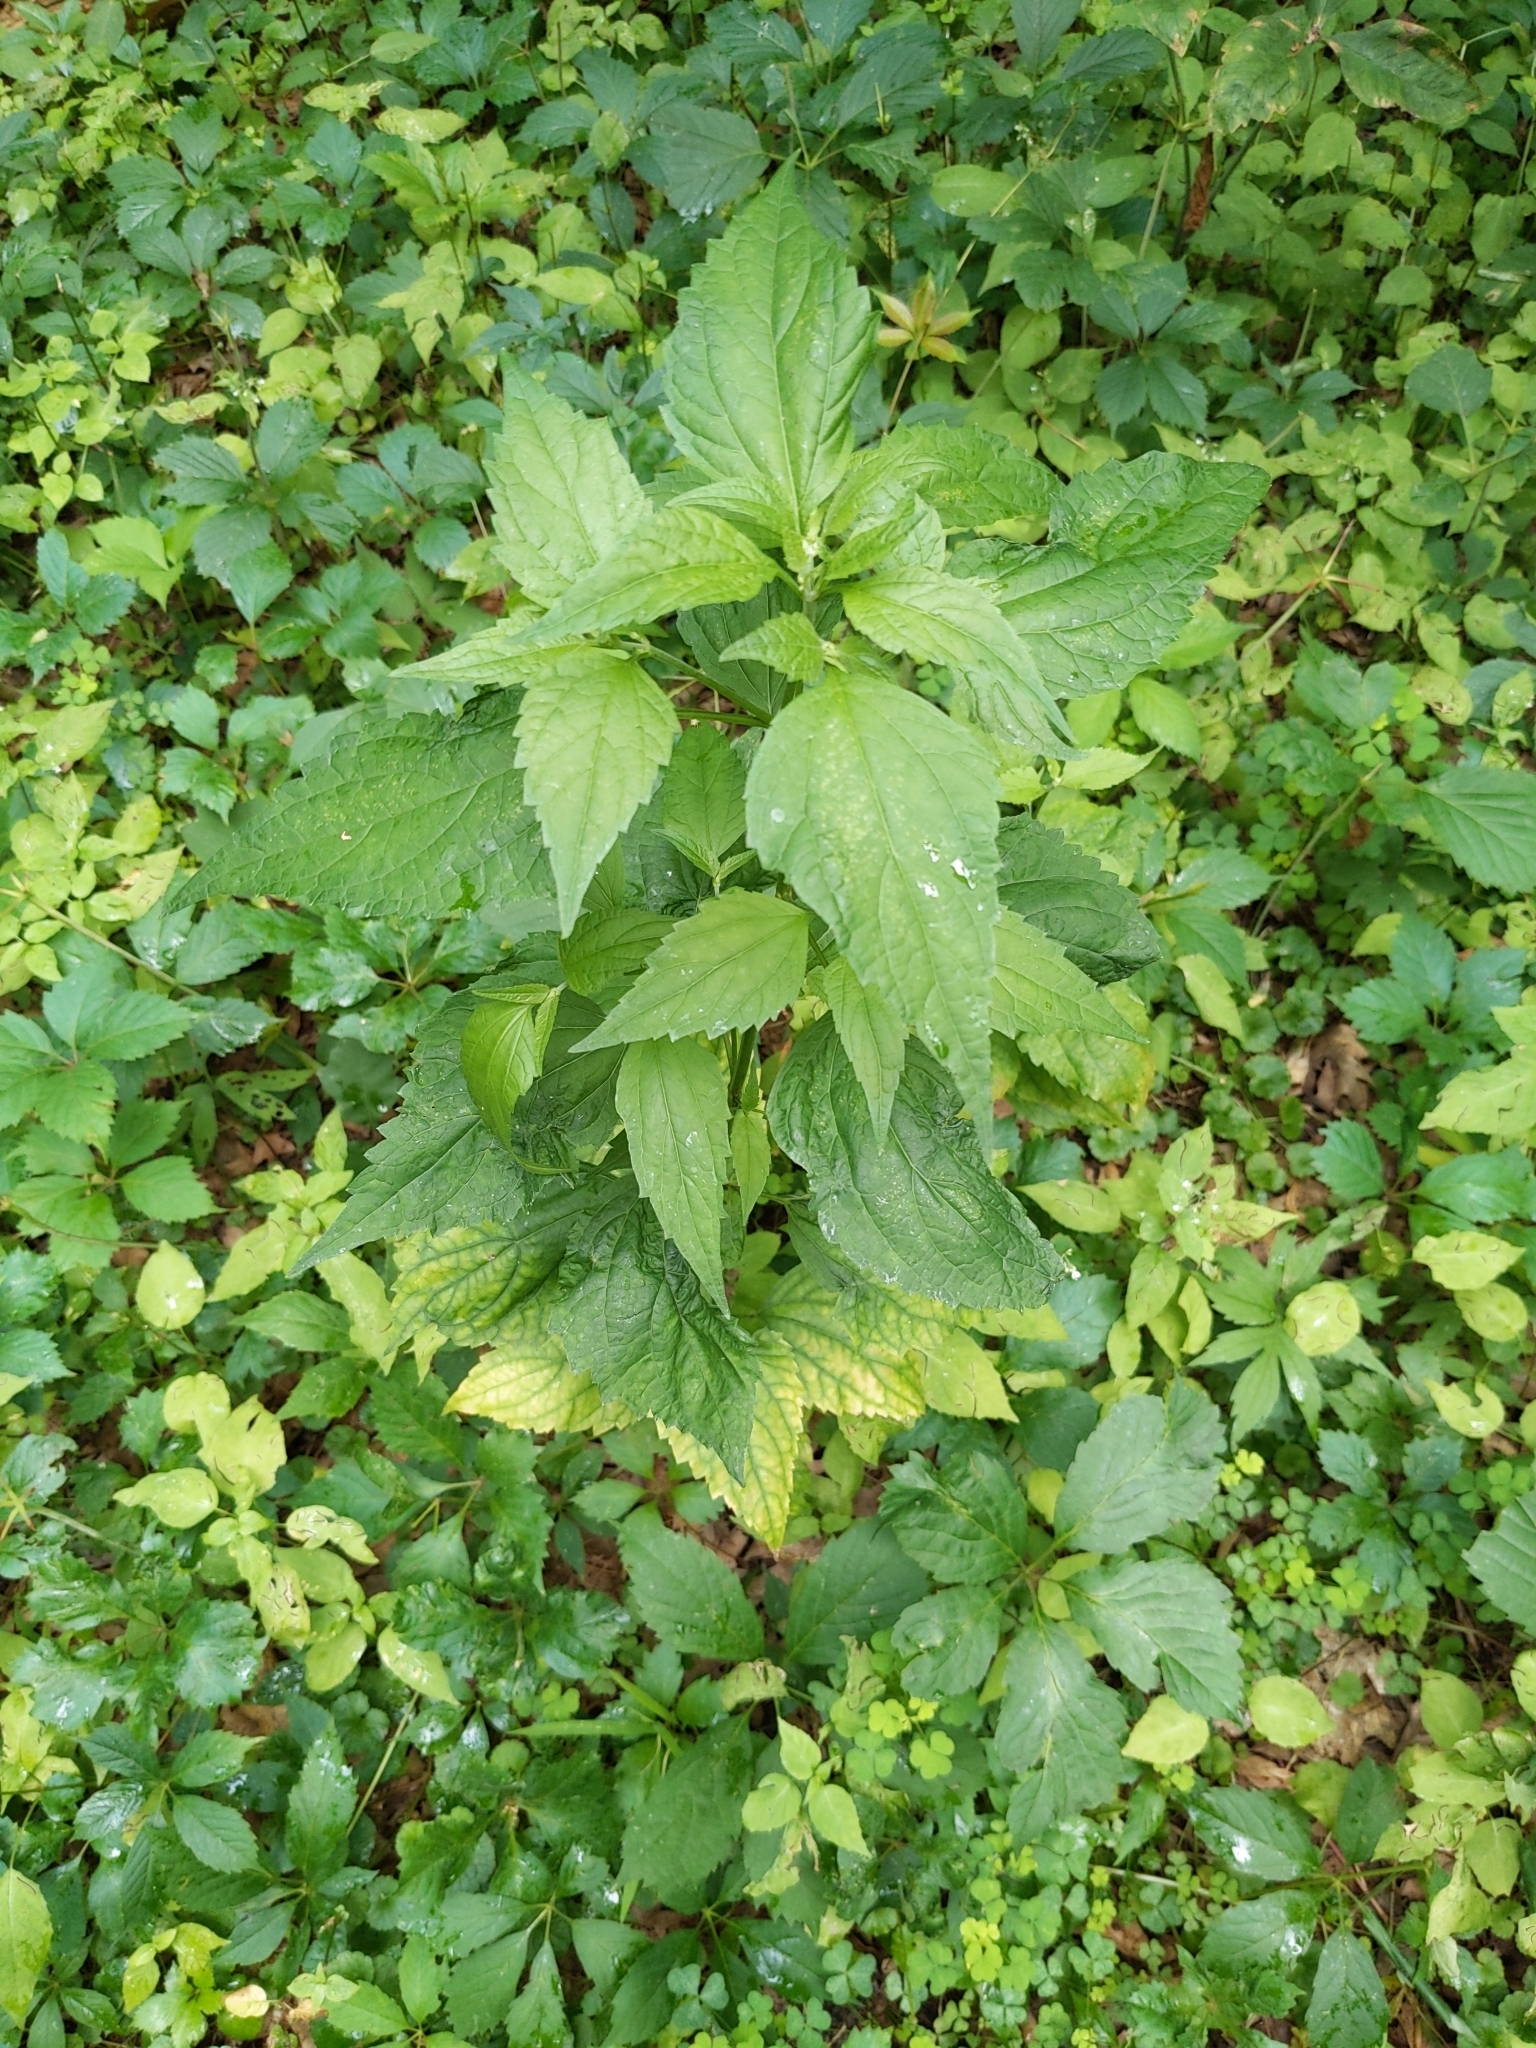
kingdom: Plantae
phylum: Tracheophyta
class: Magnoliopsida
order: Asterales
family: Asteraceae
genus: Ageratina
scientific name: Ageratina altissima
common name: White snakeroot
